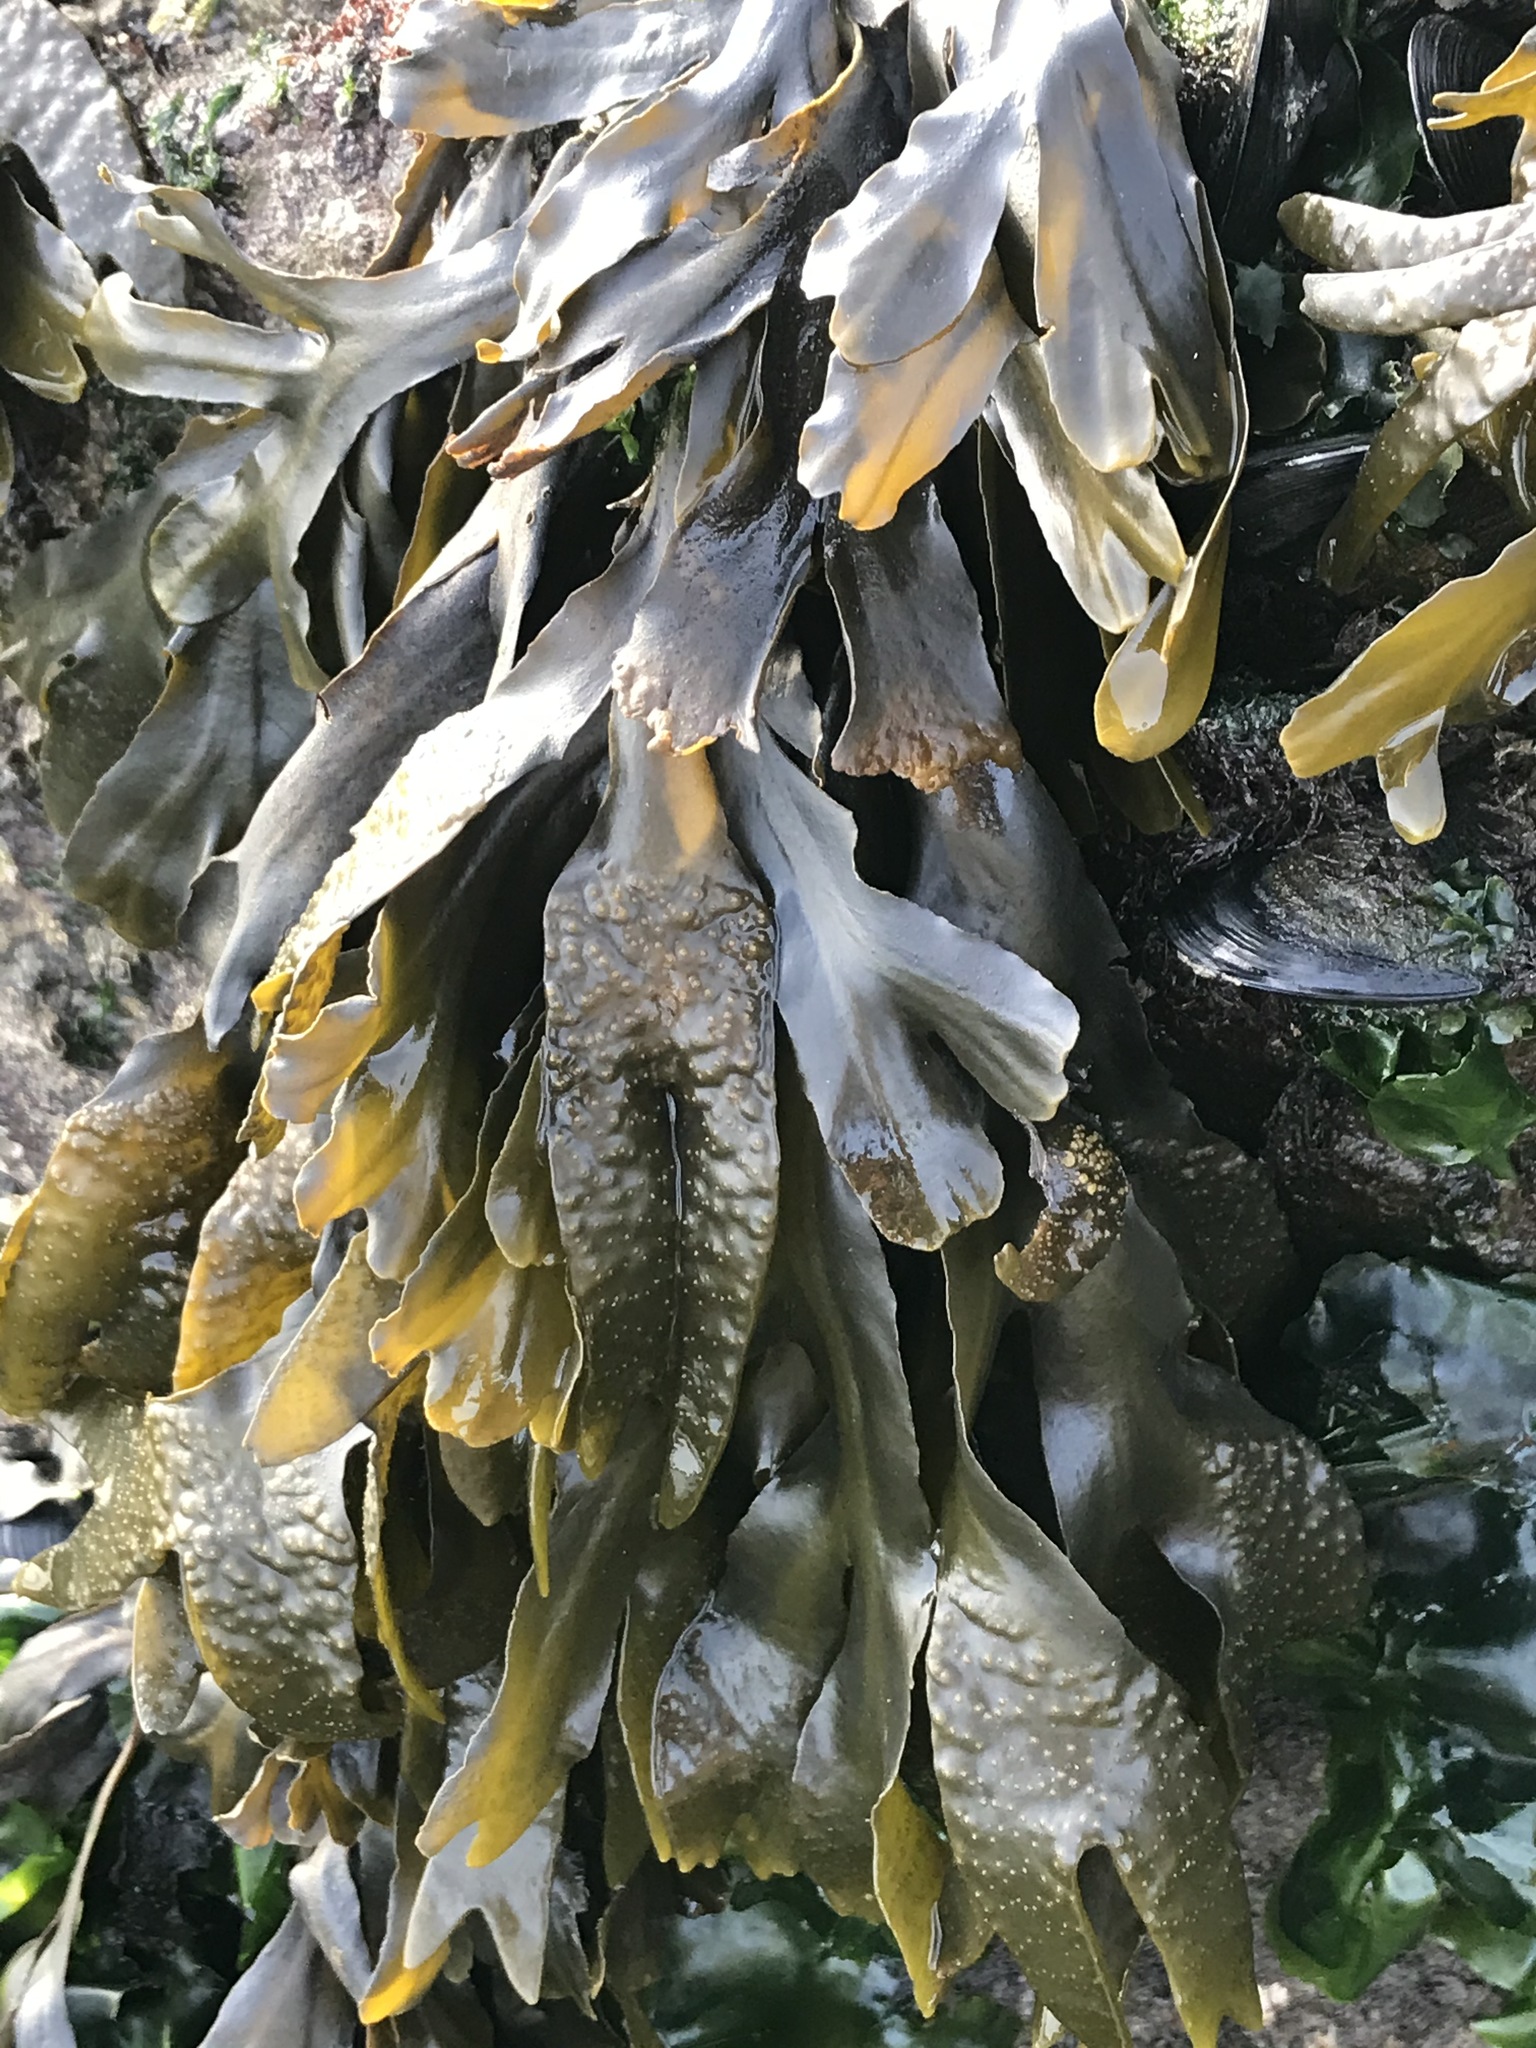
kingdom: Chromista
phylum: Ochrophyta
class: Phaeophyceae
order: Fucales
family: Fucaceae
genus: Fucus
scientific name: Fucus distichus
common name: Rockweed
